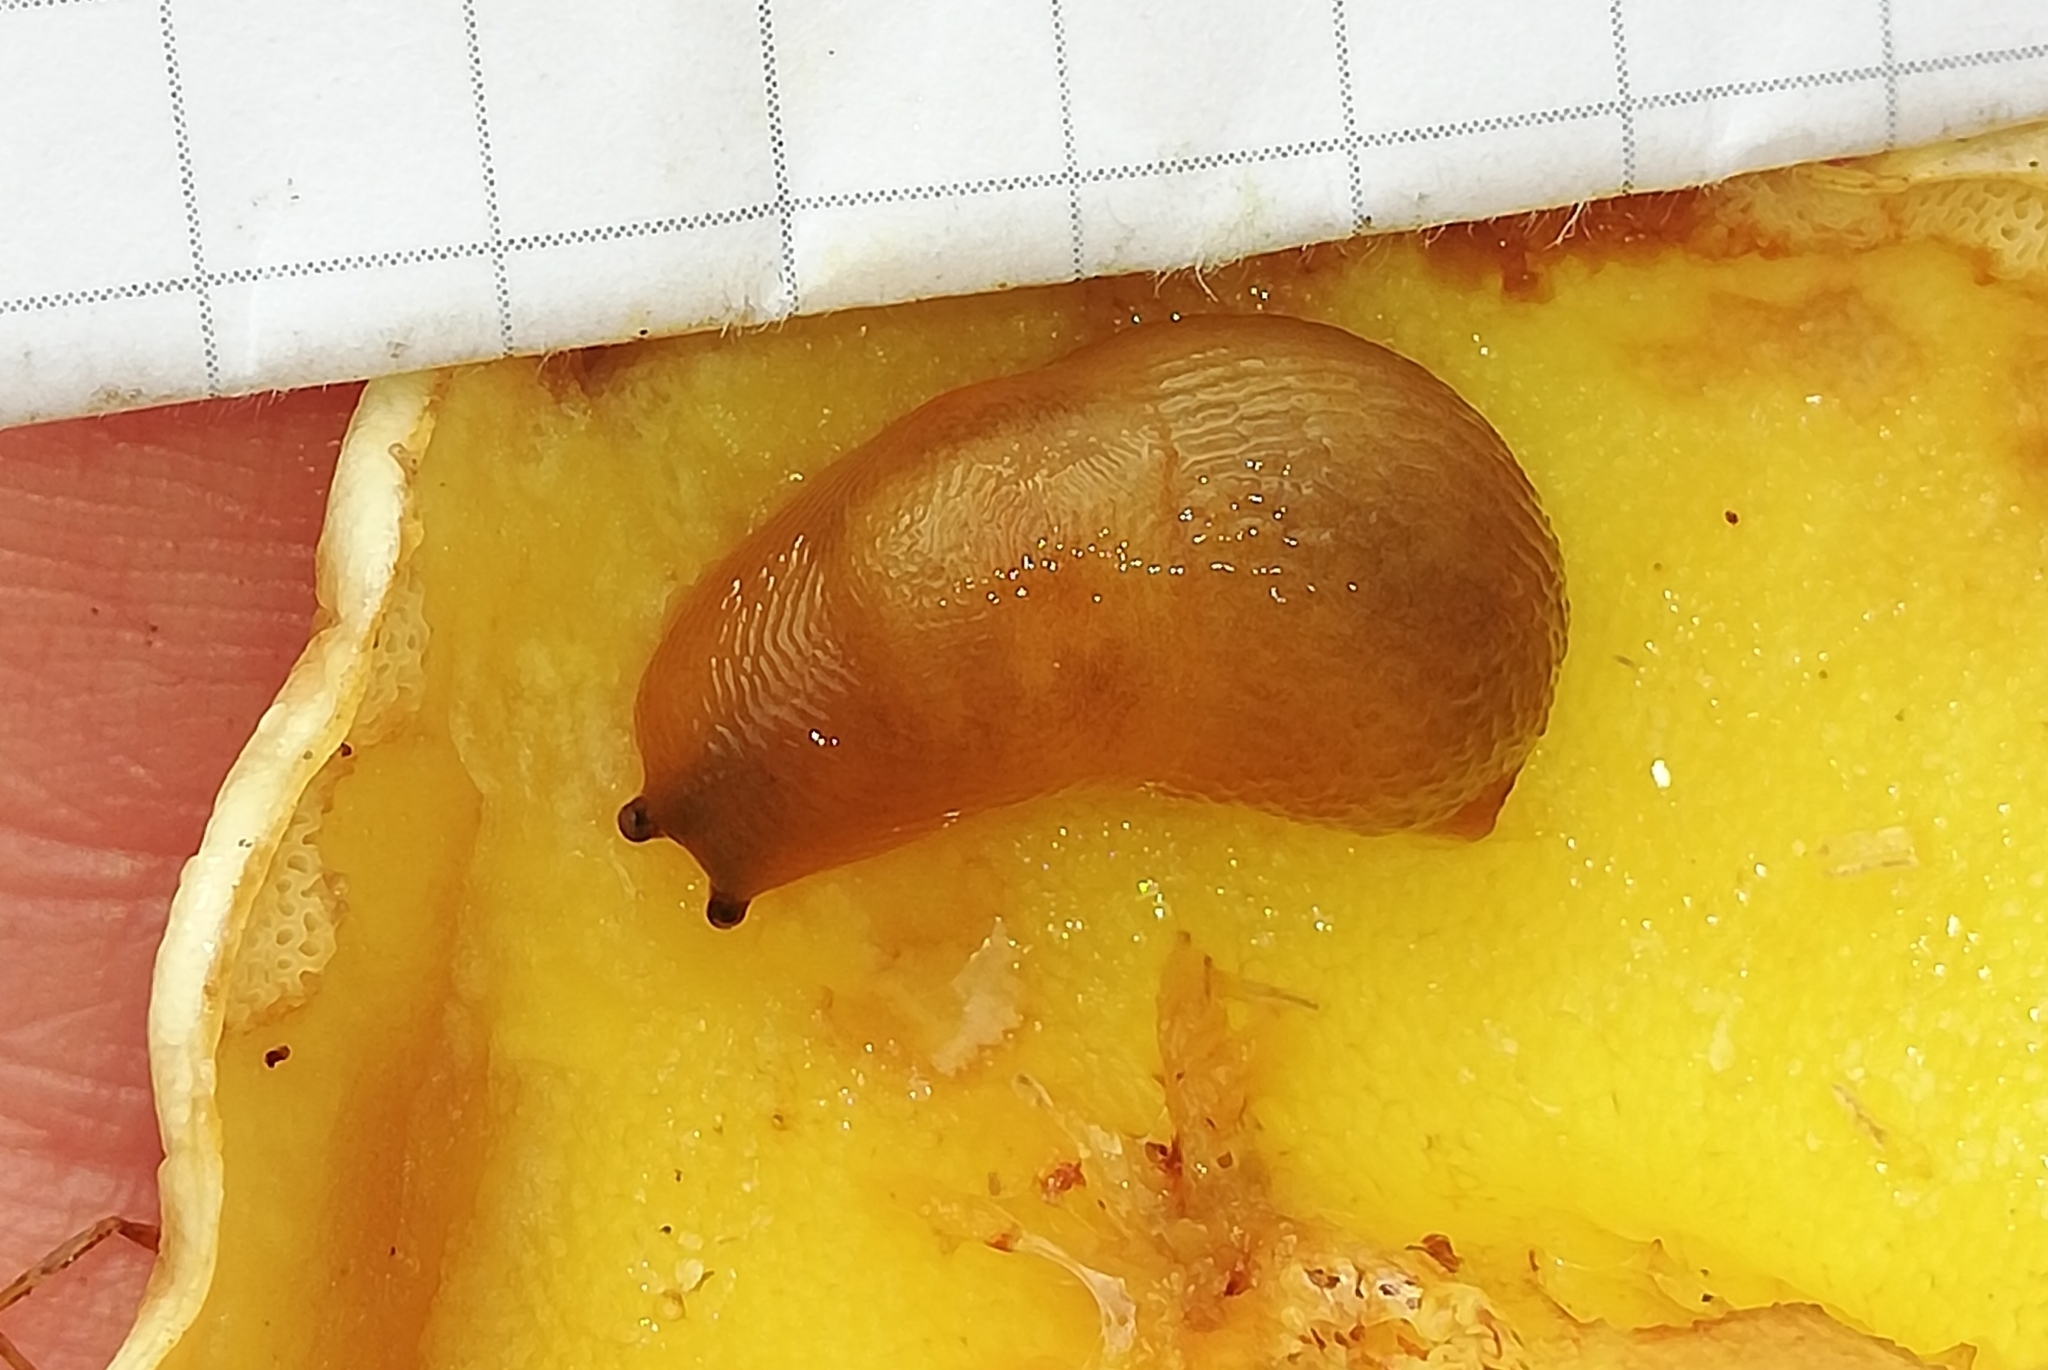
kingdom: Animalia
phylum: Mollusca
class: Gastropoda
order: Stylommatophora
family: Limacidae
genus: Malacolimax
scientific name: Malacolimax tenellus
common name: Lemon slug
